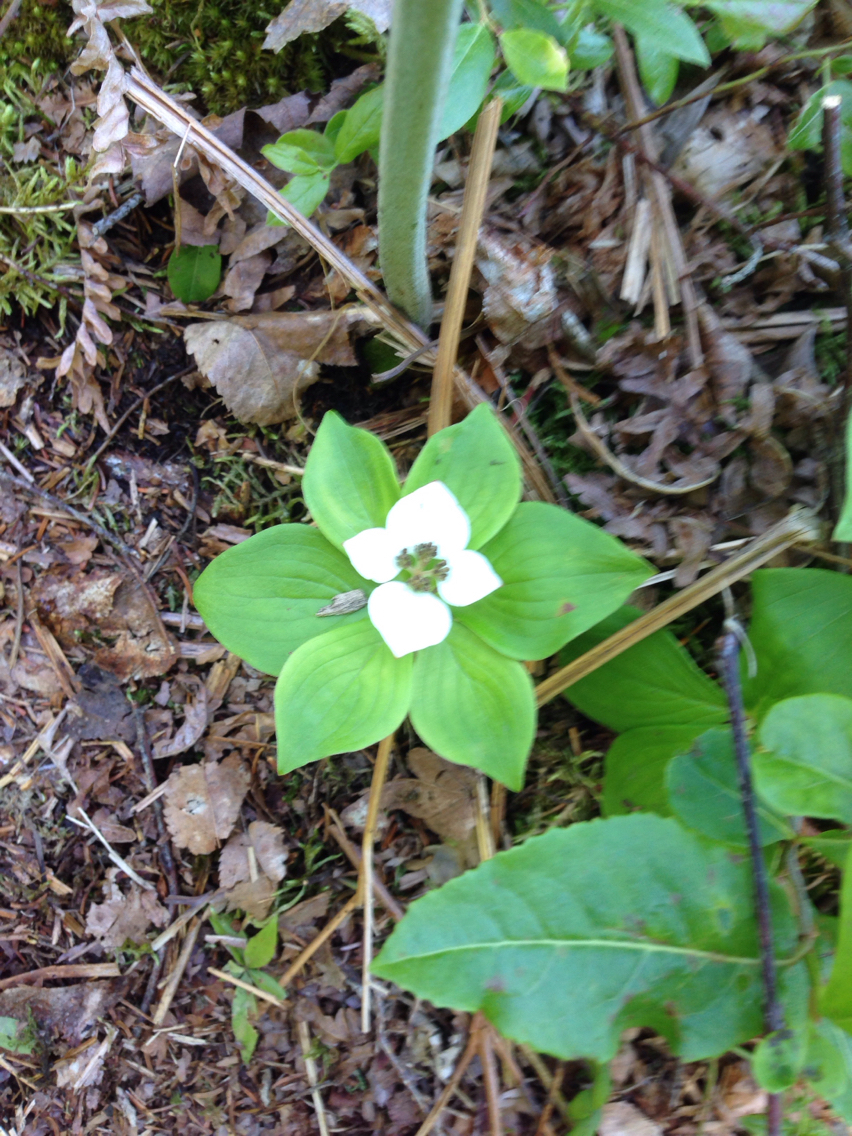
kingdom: Plantae
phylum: Tracheophyta
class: Magnoliopsida
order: Cornales
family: Cornaceae
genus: Cornus
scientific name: Cornus canadensis
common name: Creeping dogwood
